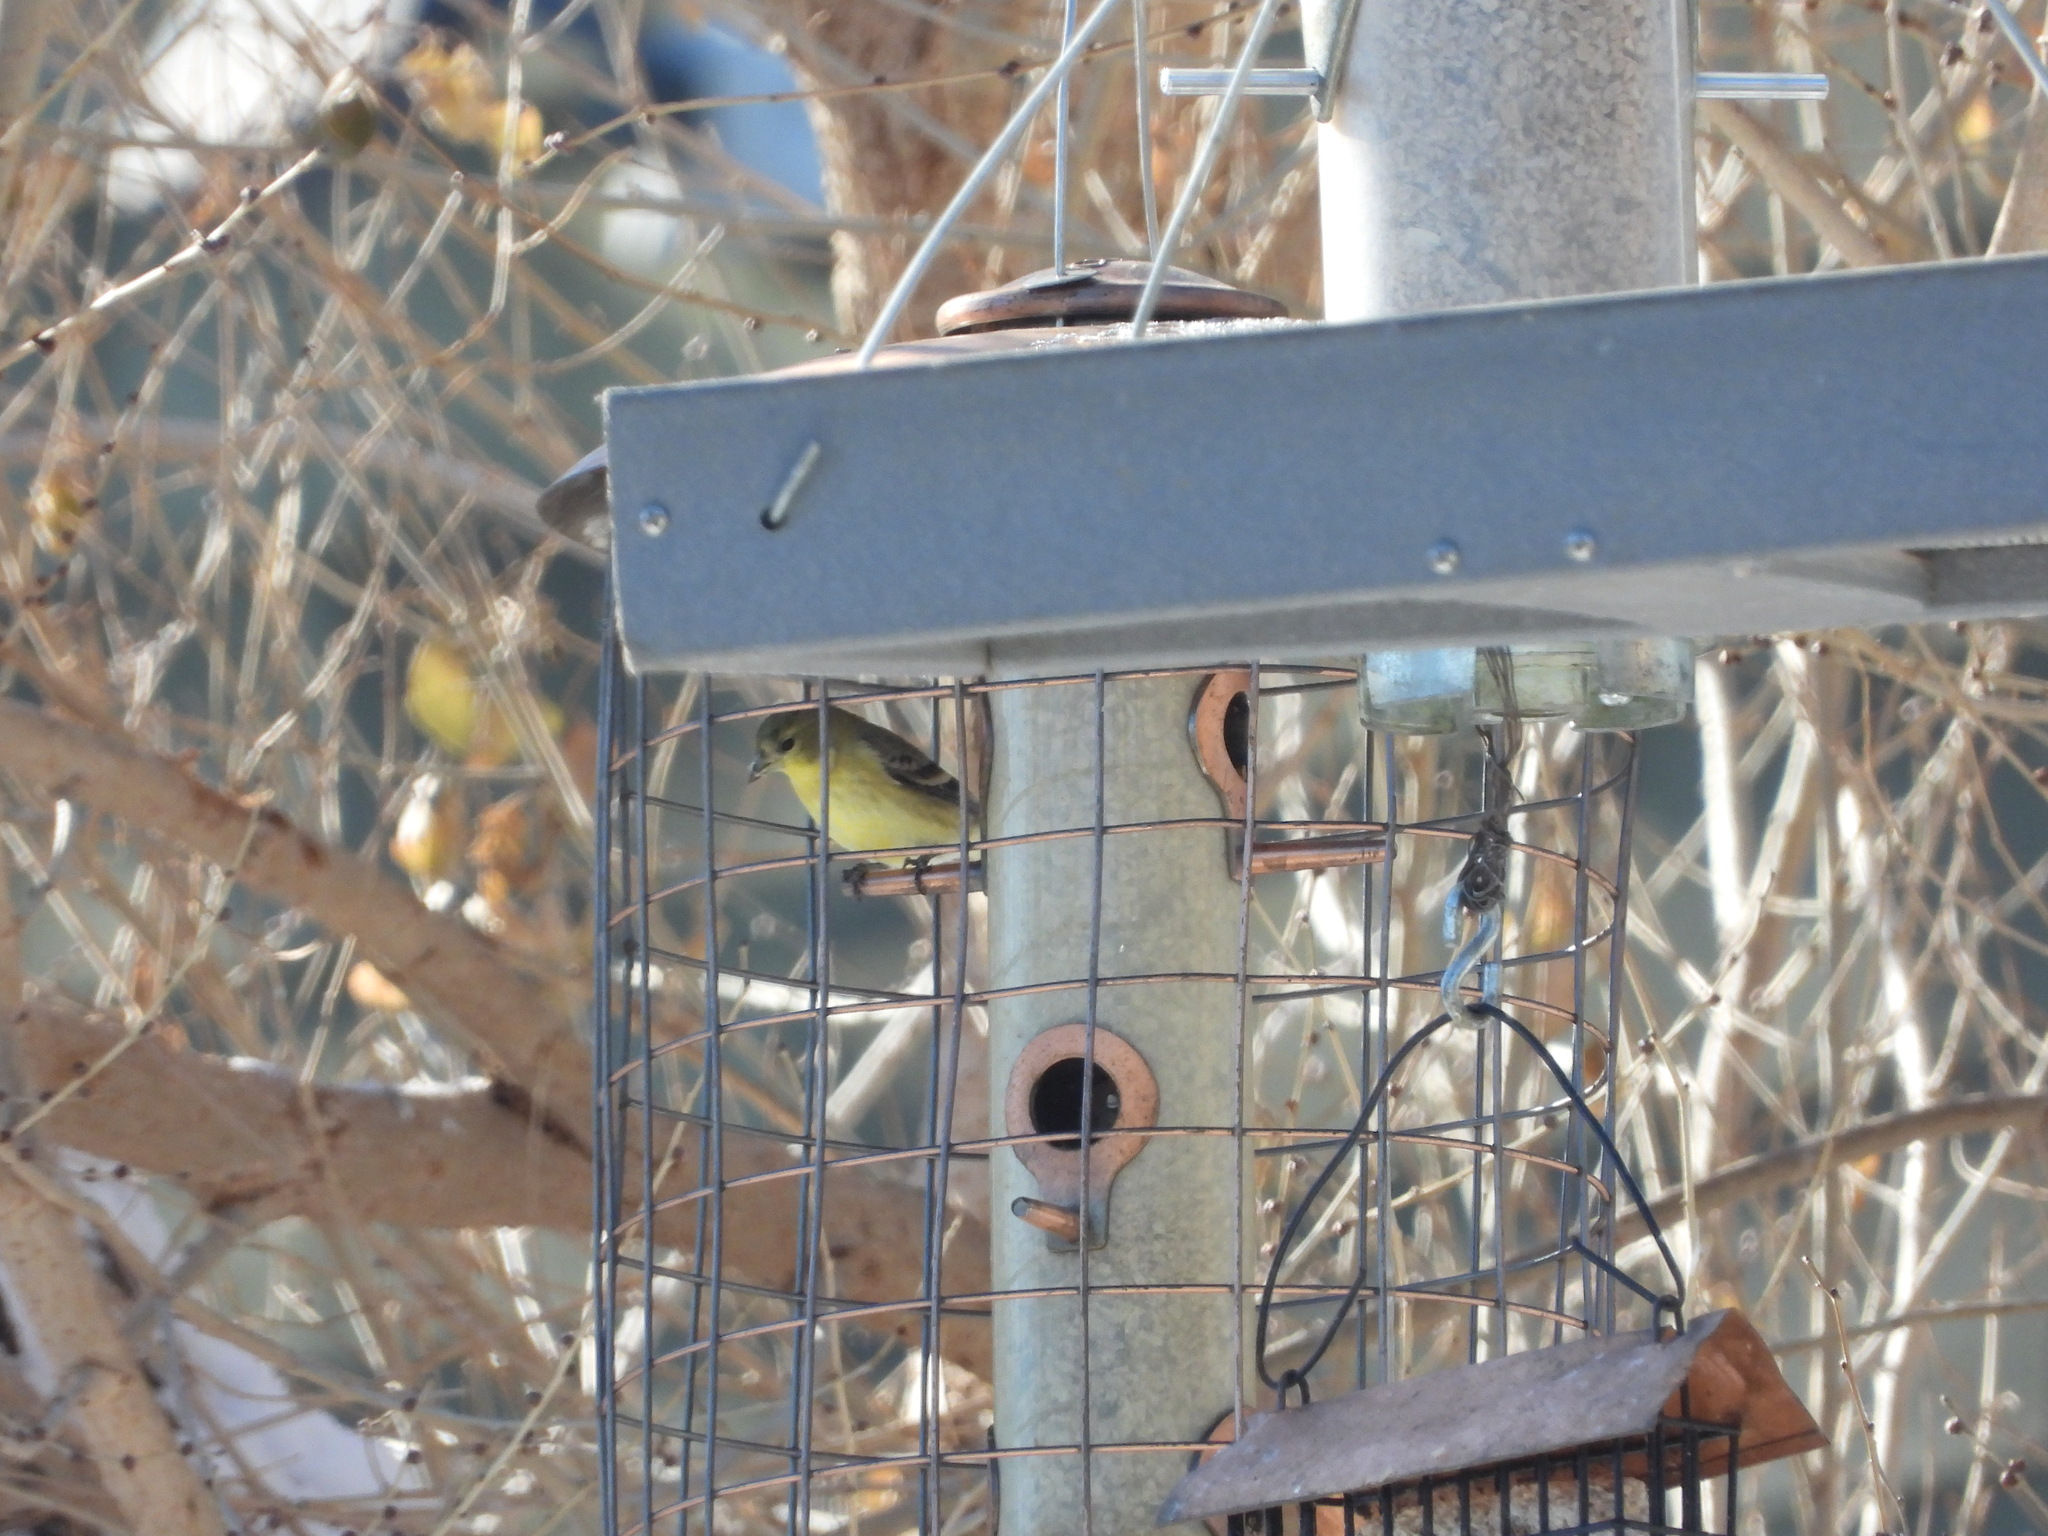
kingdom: Animalia
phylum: Chordata
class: Aves
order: Passeriformes
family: Fringillidae
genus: Spinus
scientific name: Spinus psaltria
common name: Lesser goldfinch
